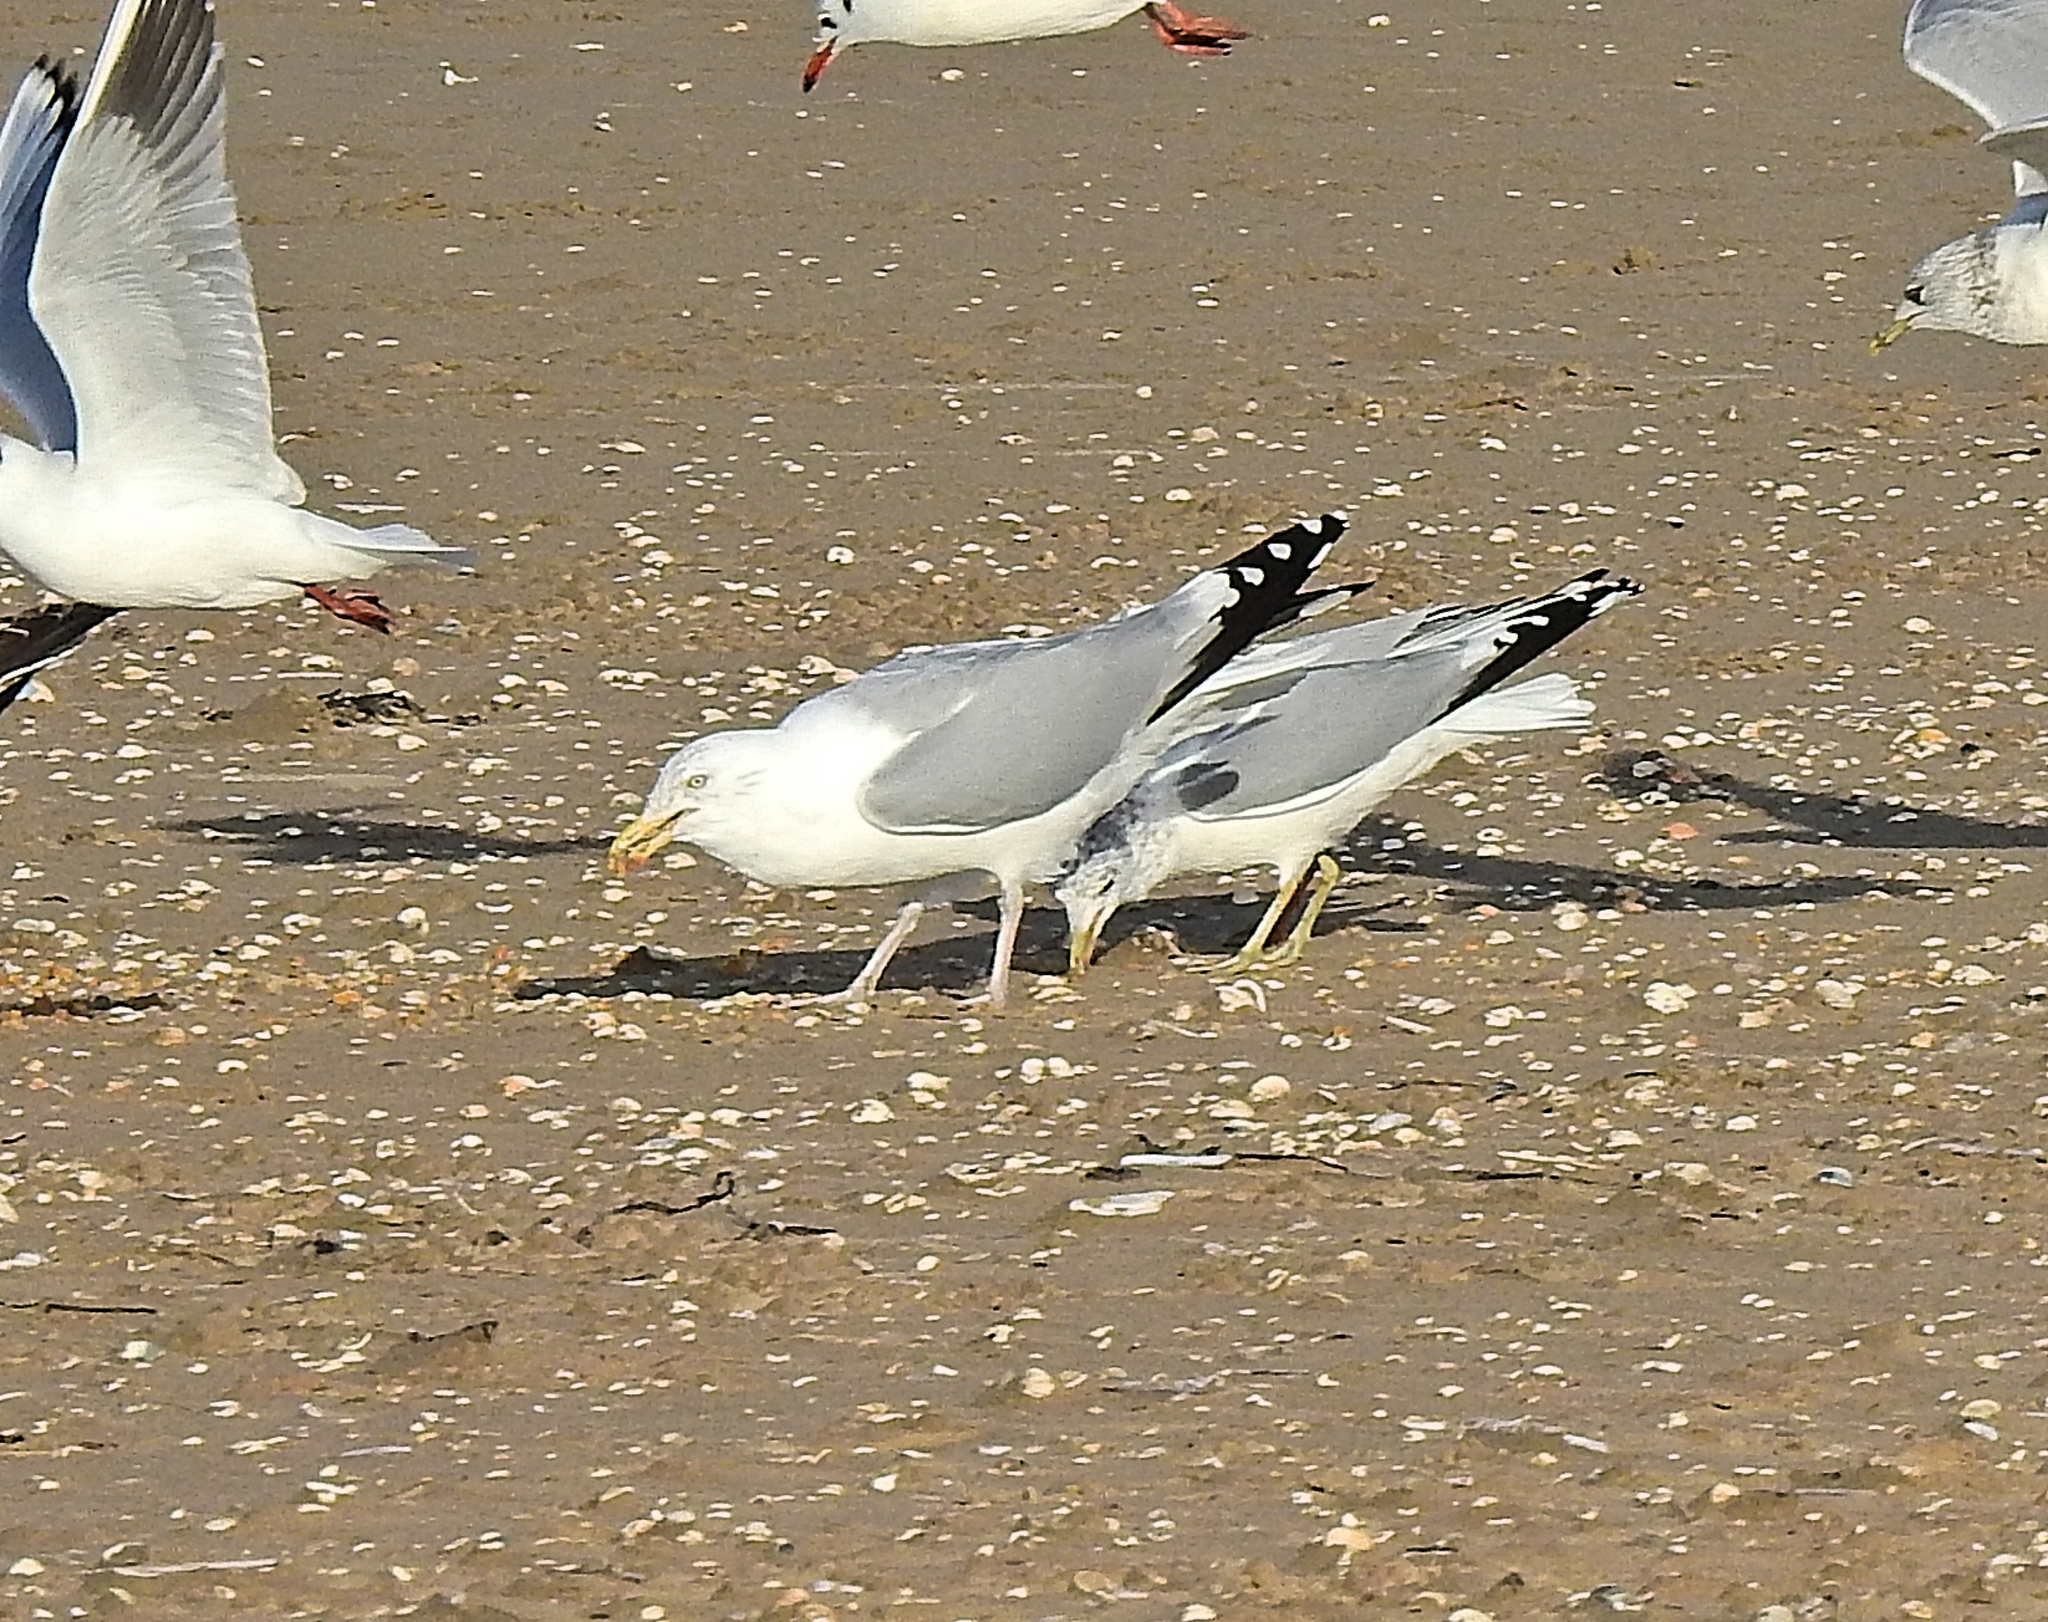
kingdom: Animalia
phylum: Chordata
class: Aves
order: Charadriiformes
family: Laridae
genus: Larus
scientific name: Larus argentatus
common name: Herring gull
